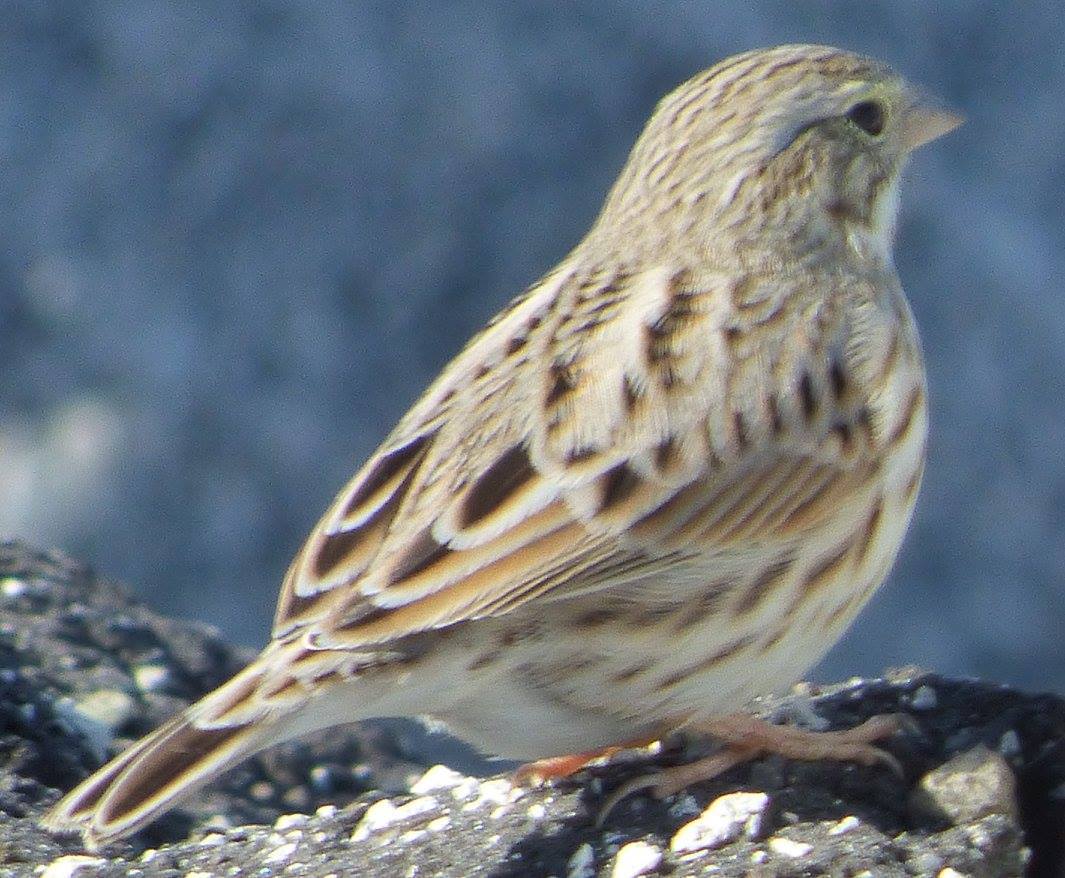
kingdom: Animalia
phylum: Chordata
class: Aves
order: Passeriformes
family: Passerellidae
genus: Passerculus
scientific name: Passerculus sandwichensis
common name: Savannah sparrow
